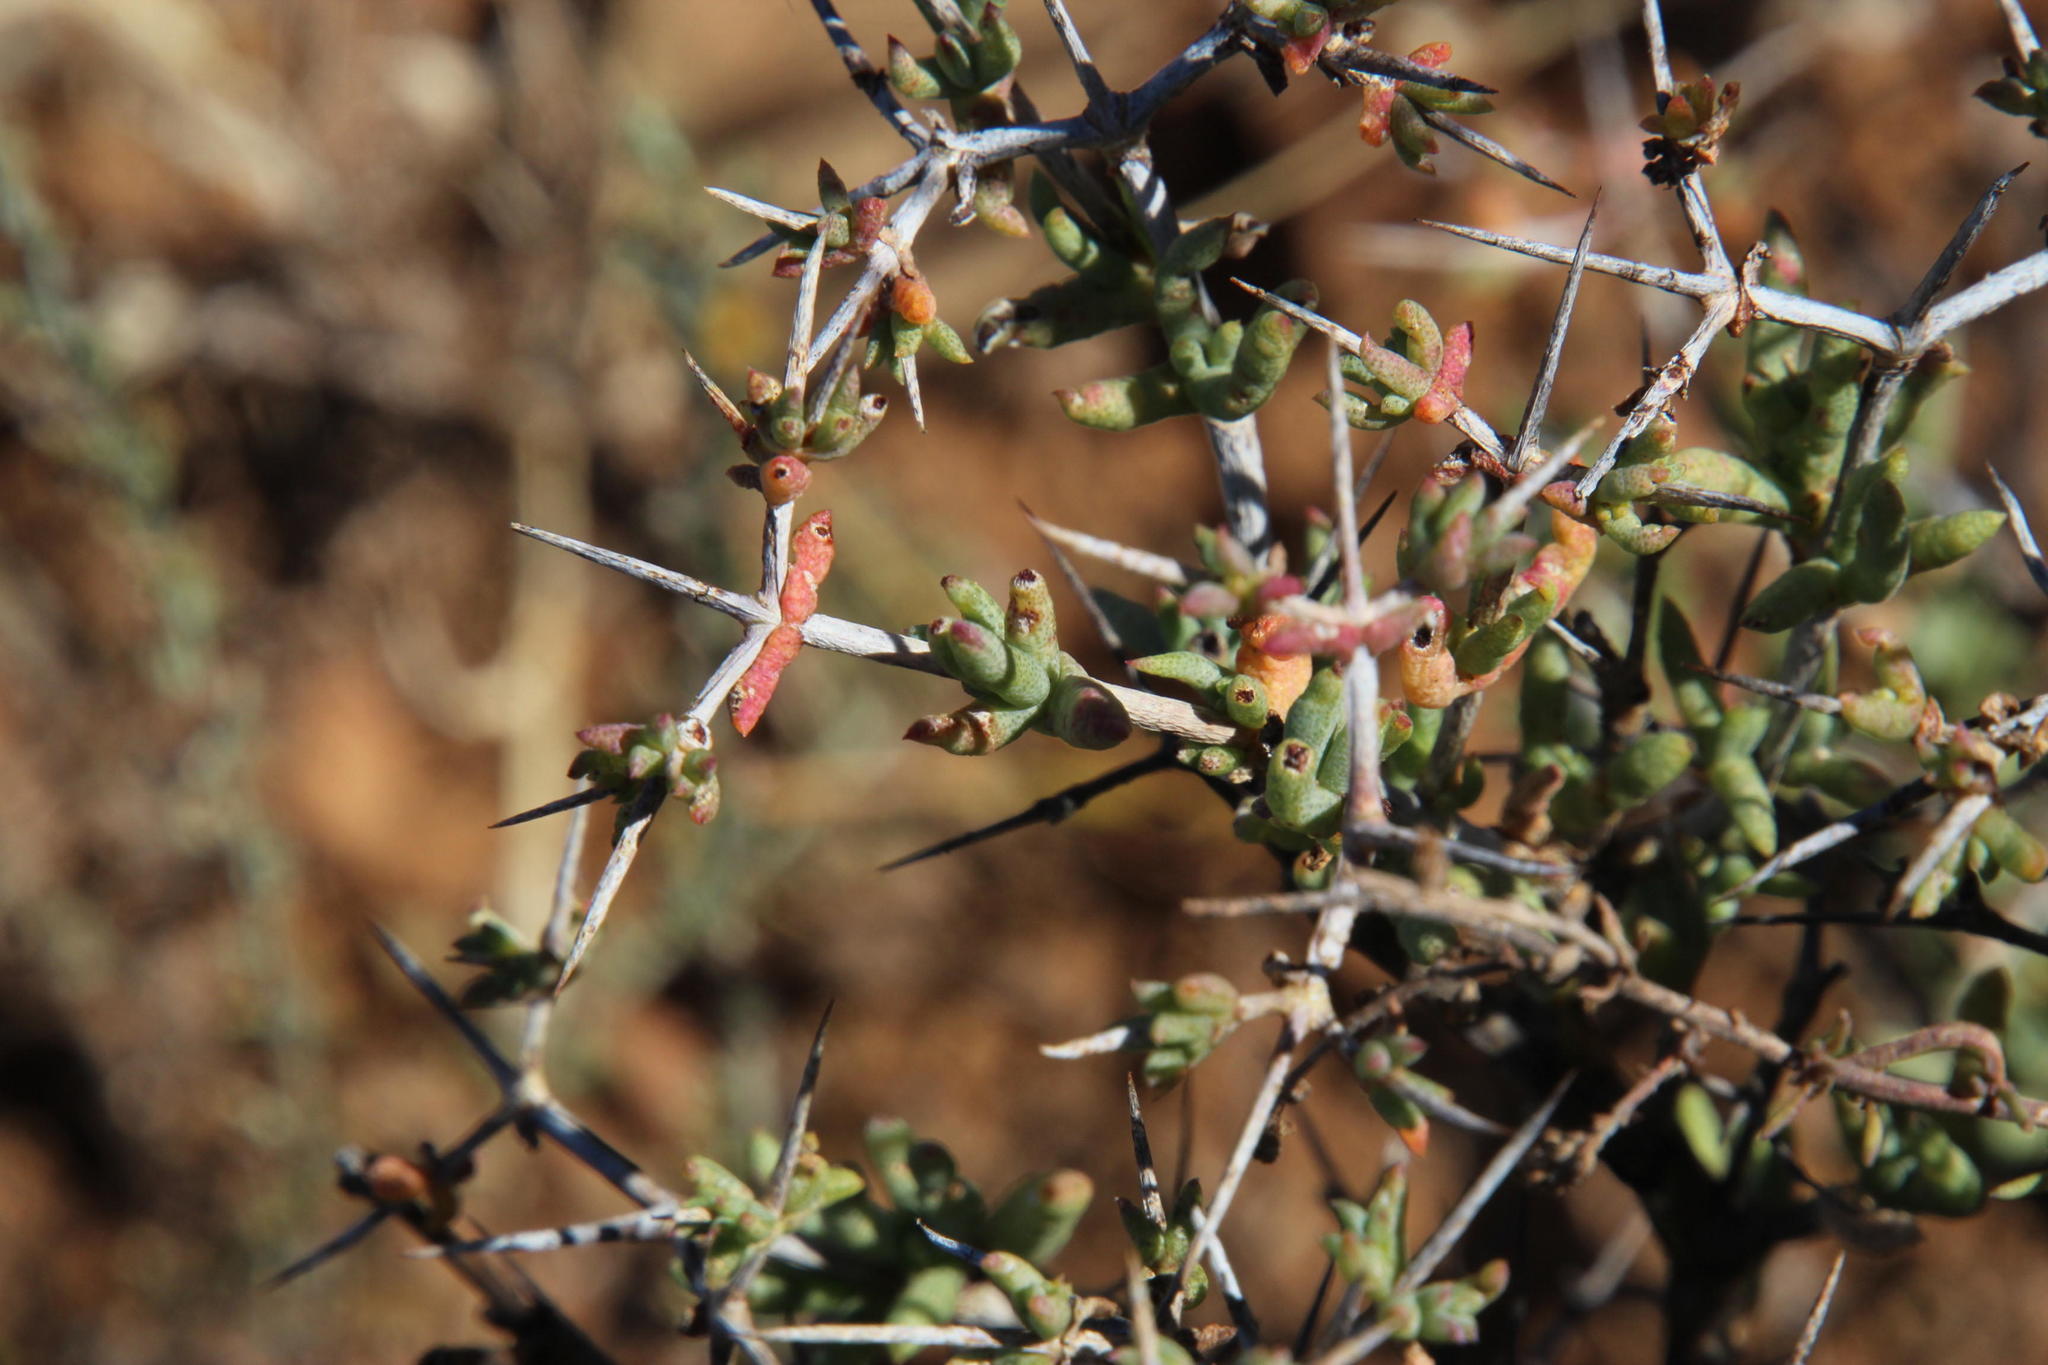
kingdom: Plantae
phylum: Tracheophyta
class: Magnoliopsida
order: Caryophyllales
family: Aizoaceae
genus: Ruschia
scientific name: Ruschia intricata
